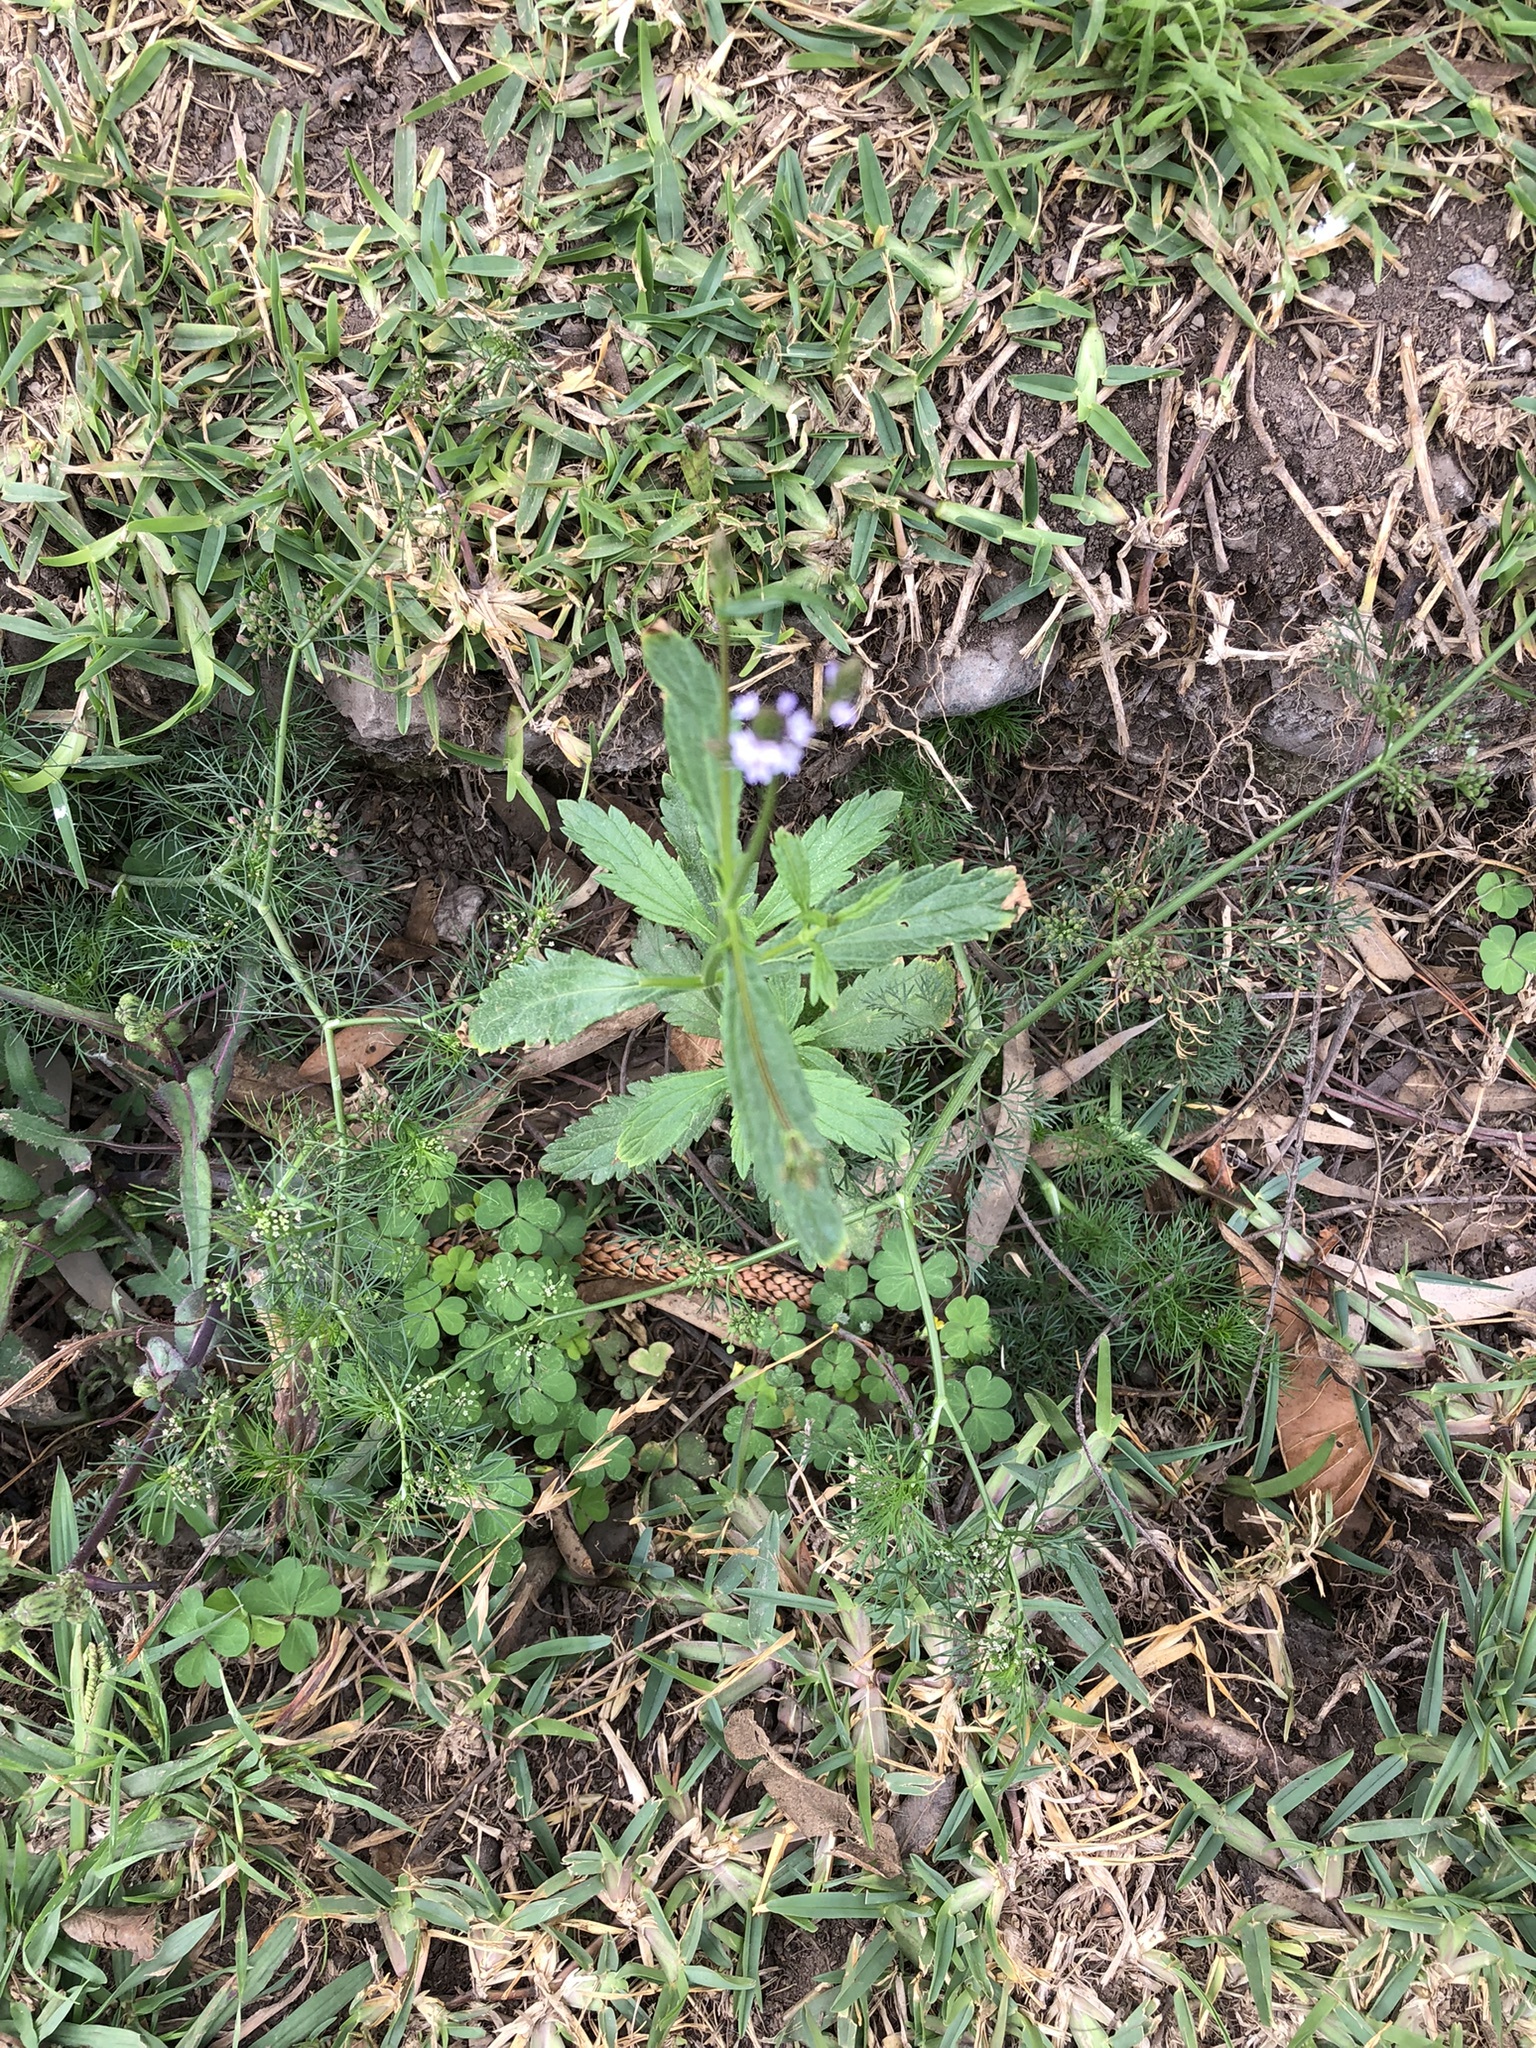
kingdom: Plantae
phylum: Tracheophyta
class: Magnoliopsida
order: Lamiales
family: Verbenaceae
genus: Verbena
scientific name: Verbena litoralis
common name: Seashore vervain
